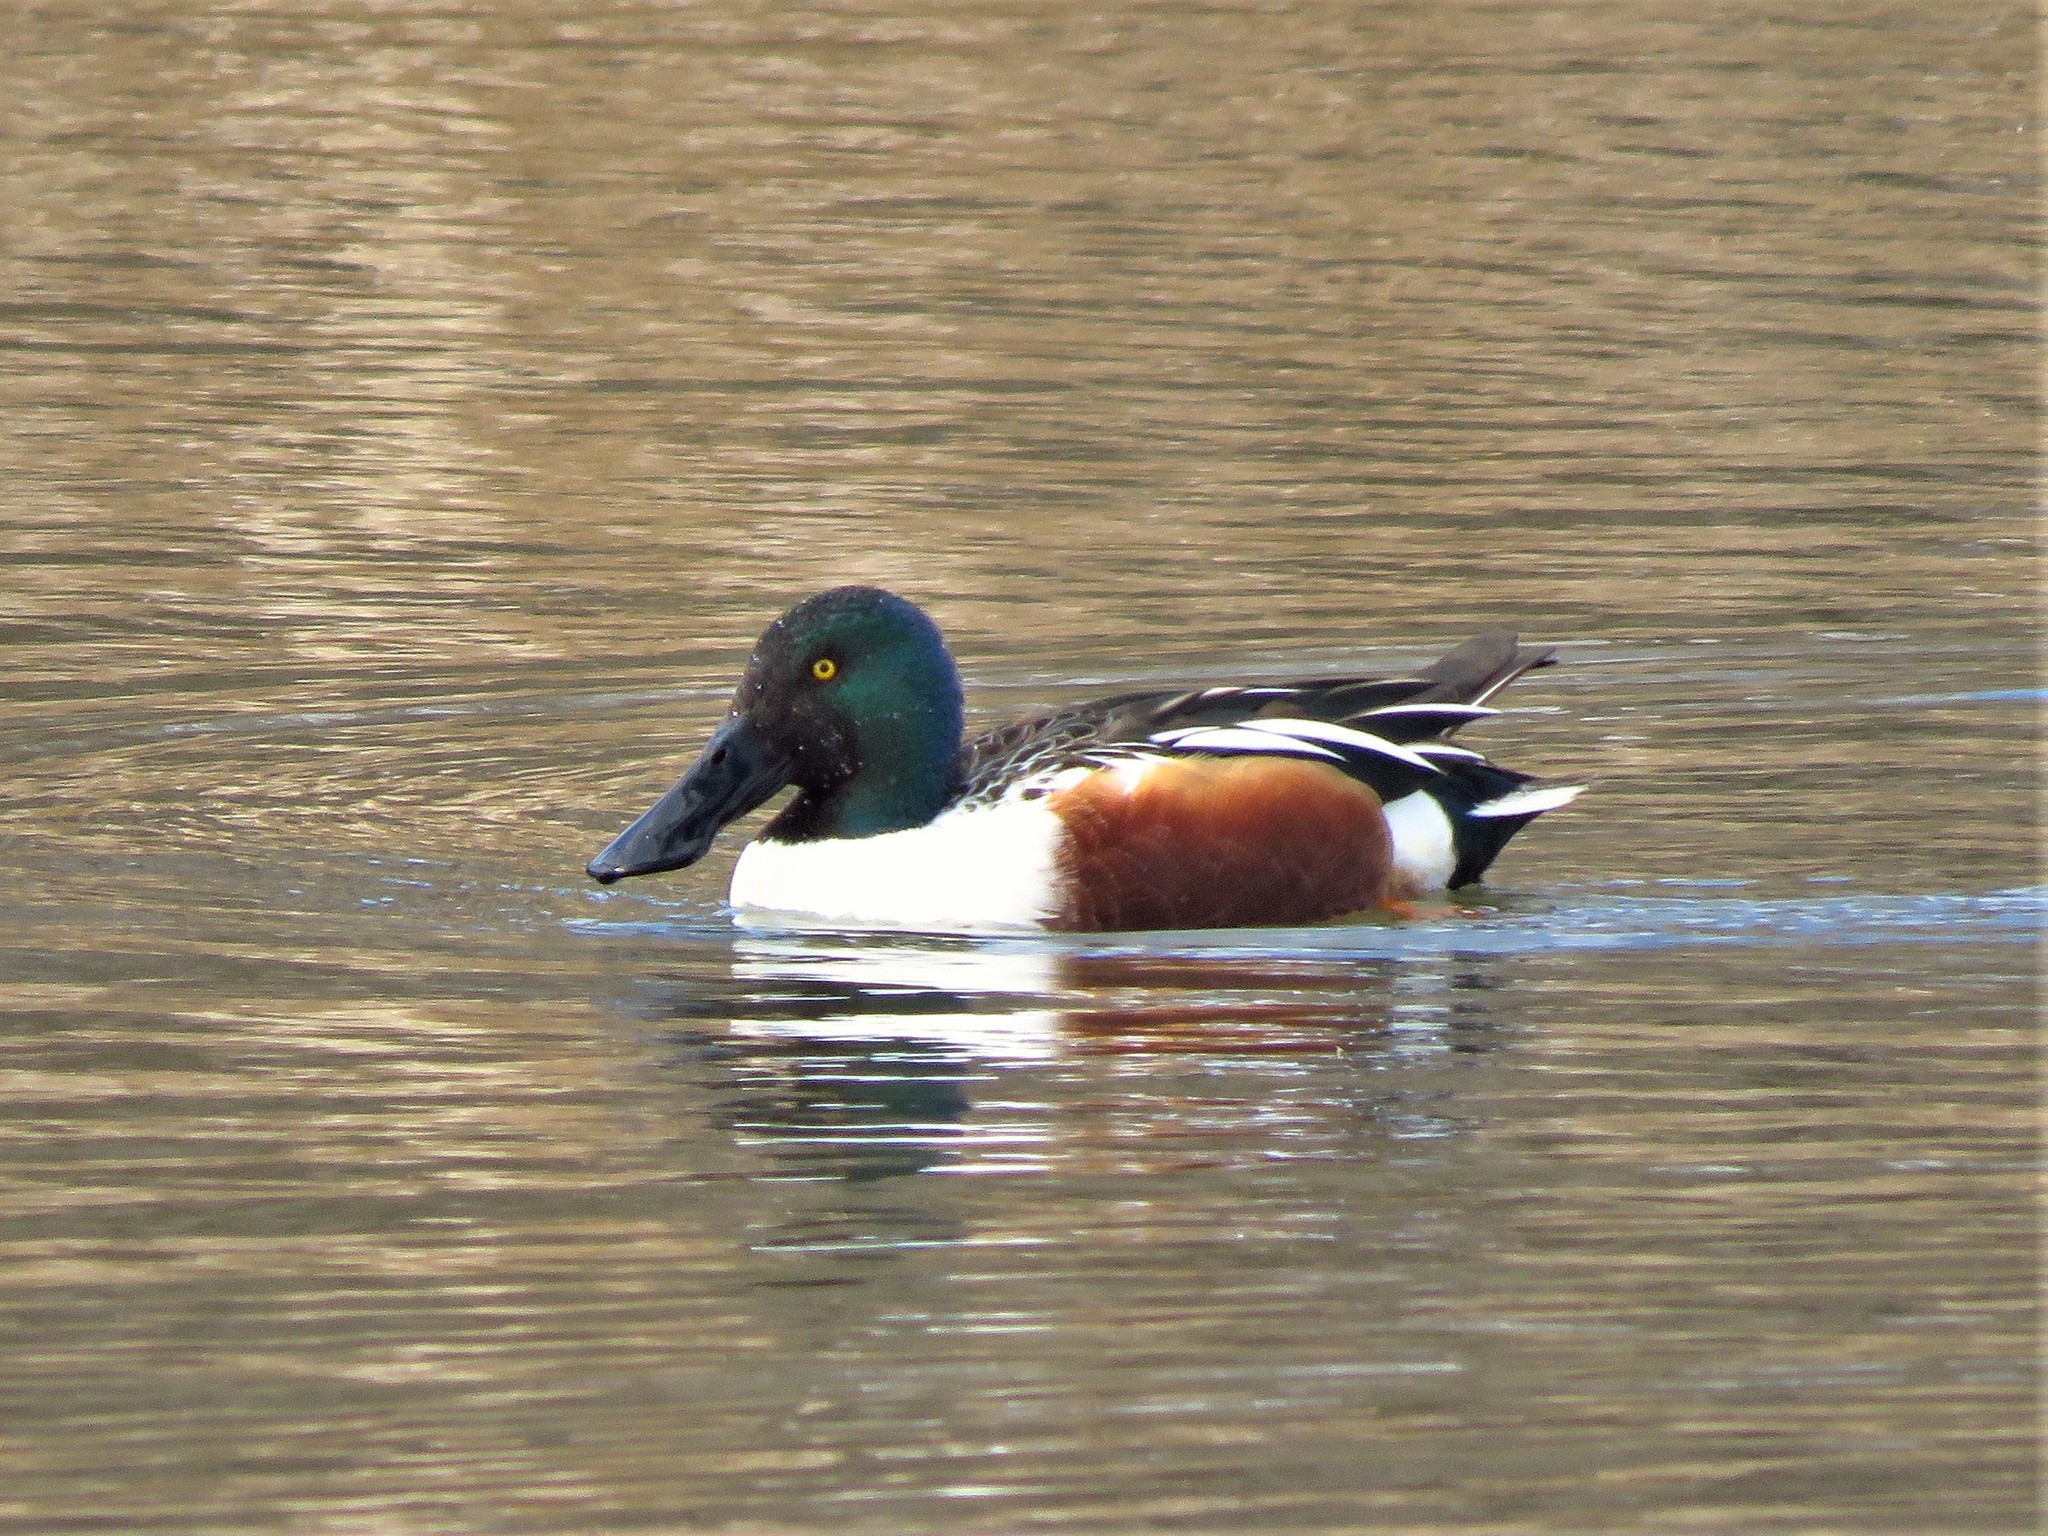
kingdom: Animalia
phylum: Chordata
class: Aves
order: Anseriformes
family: Anatidae
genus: Spatula
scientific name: Spatula clypeata
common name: Northern shoveler
